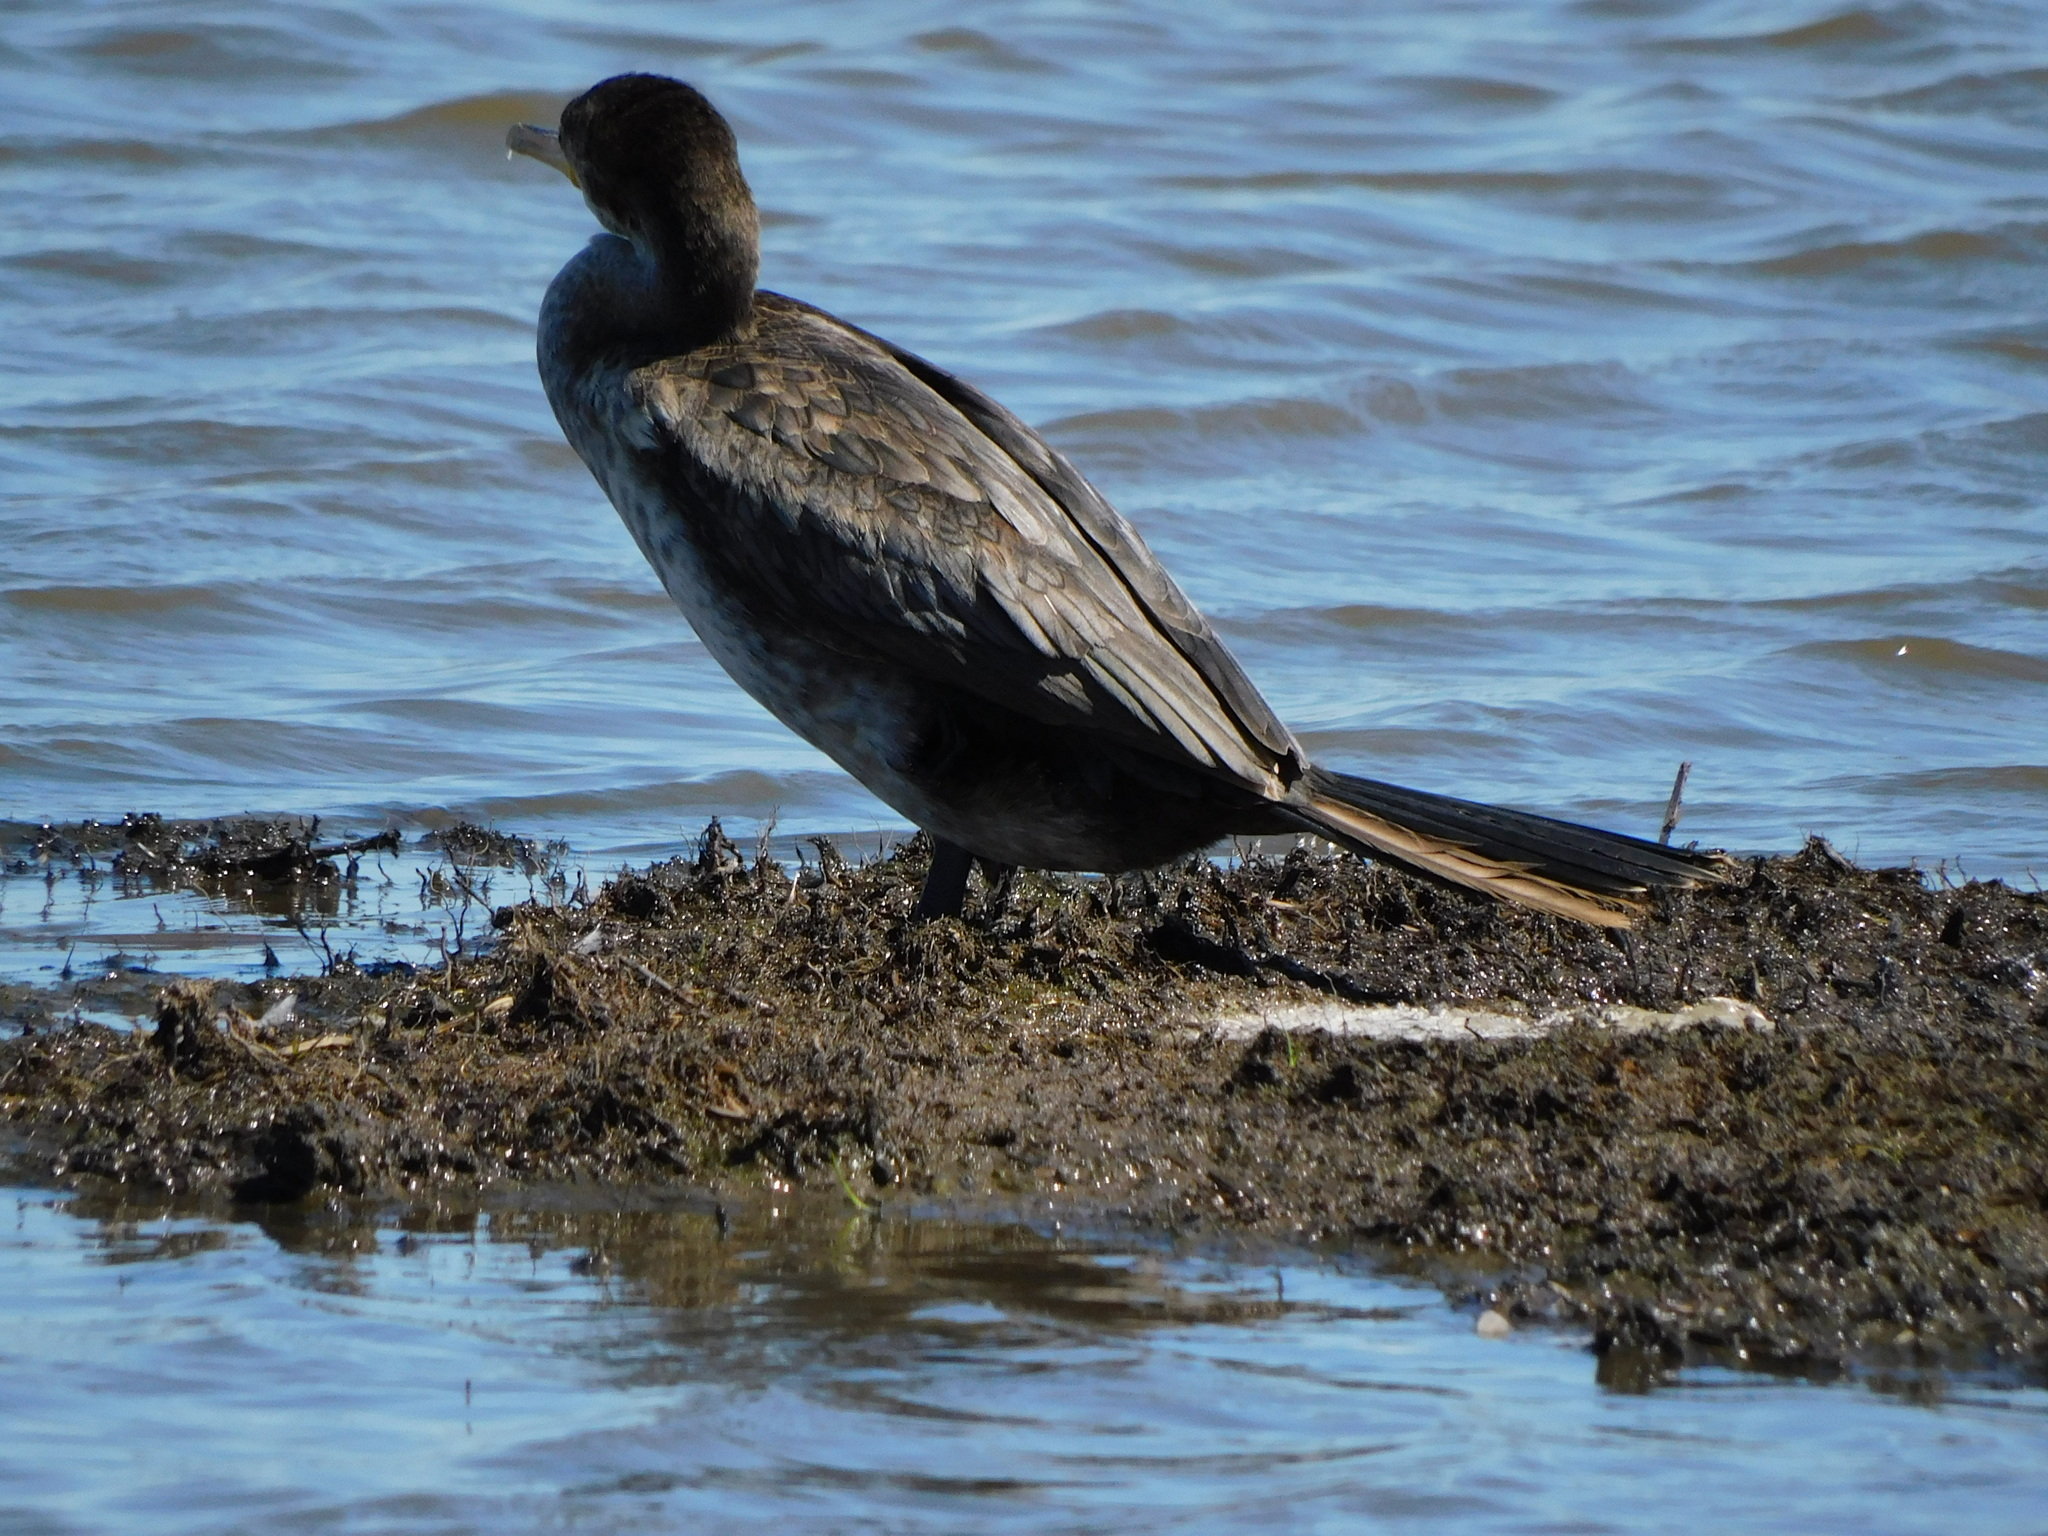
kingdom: Animalia
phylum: Chordata
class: Aves
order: Suliformes
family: Phalacrocoracidae
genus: Phalacrocorax
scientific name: Phalacrocorax brasilianus
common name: Neotropic cormorant
